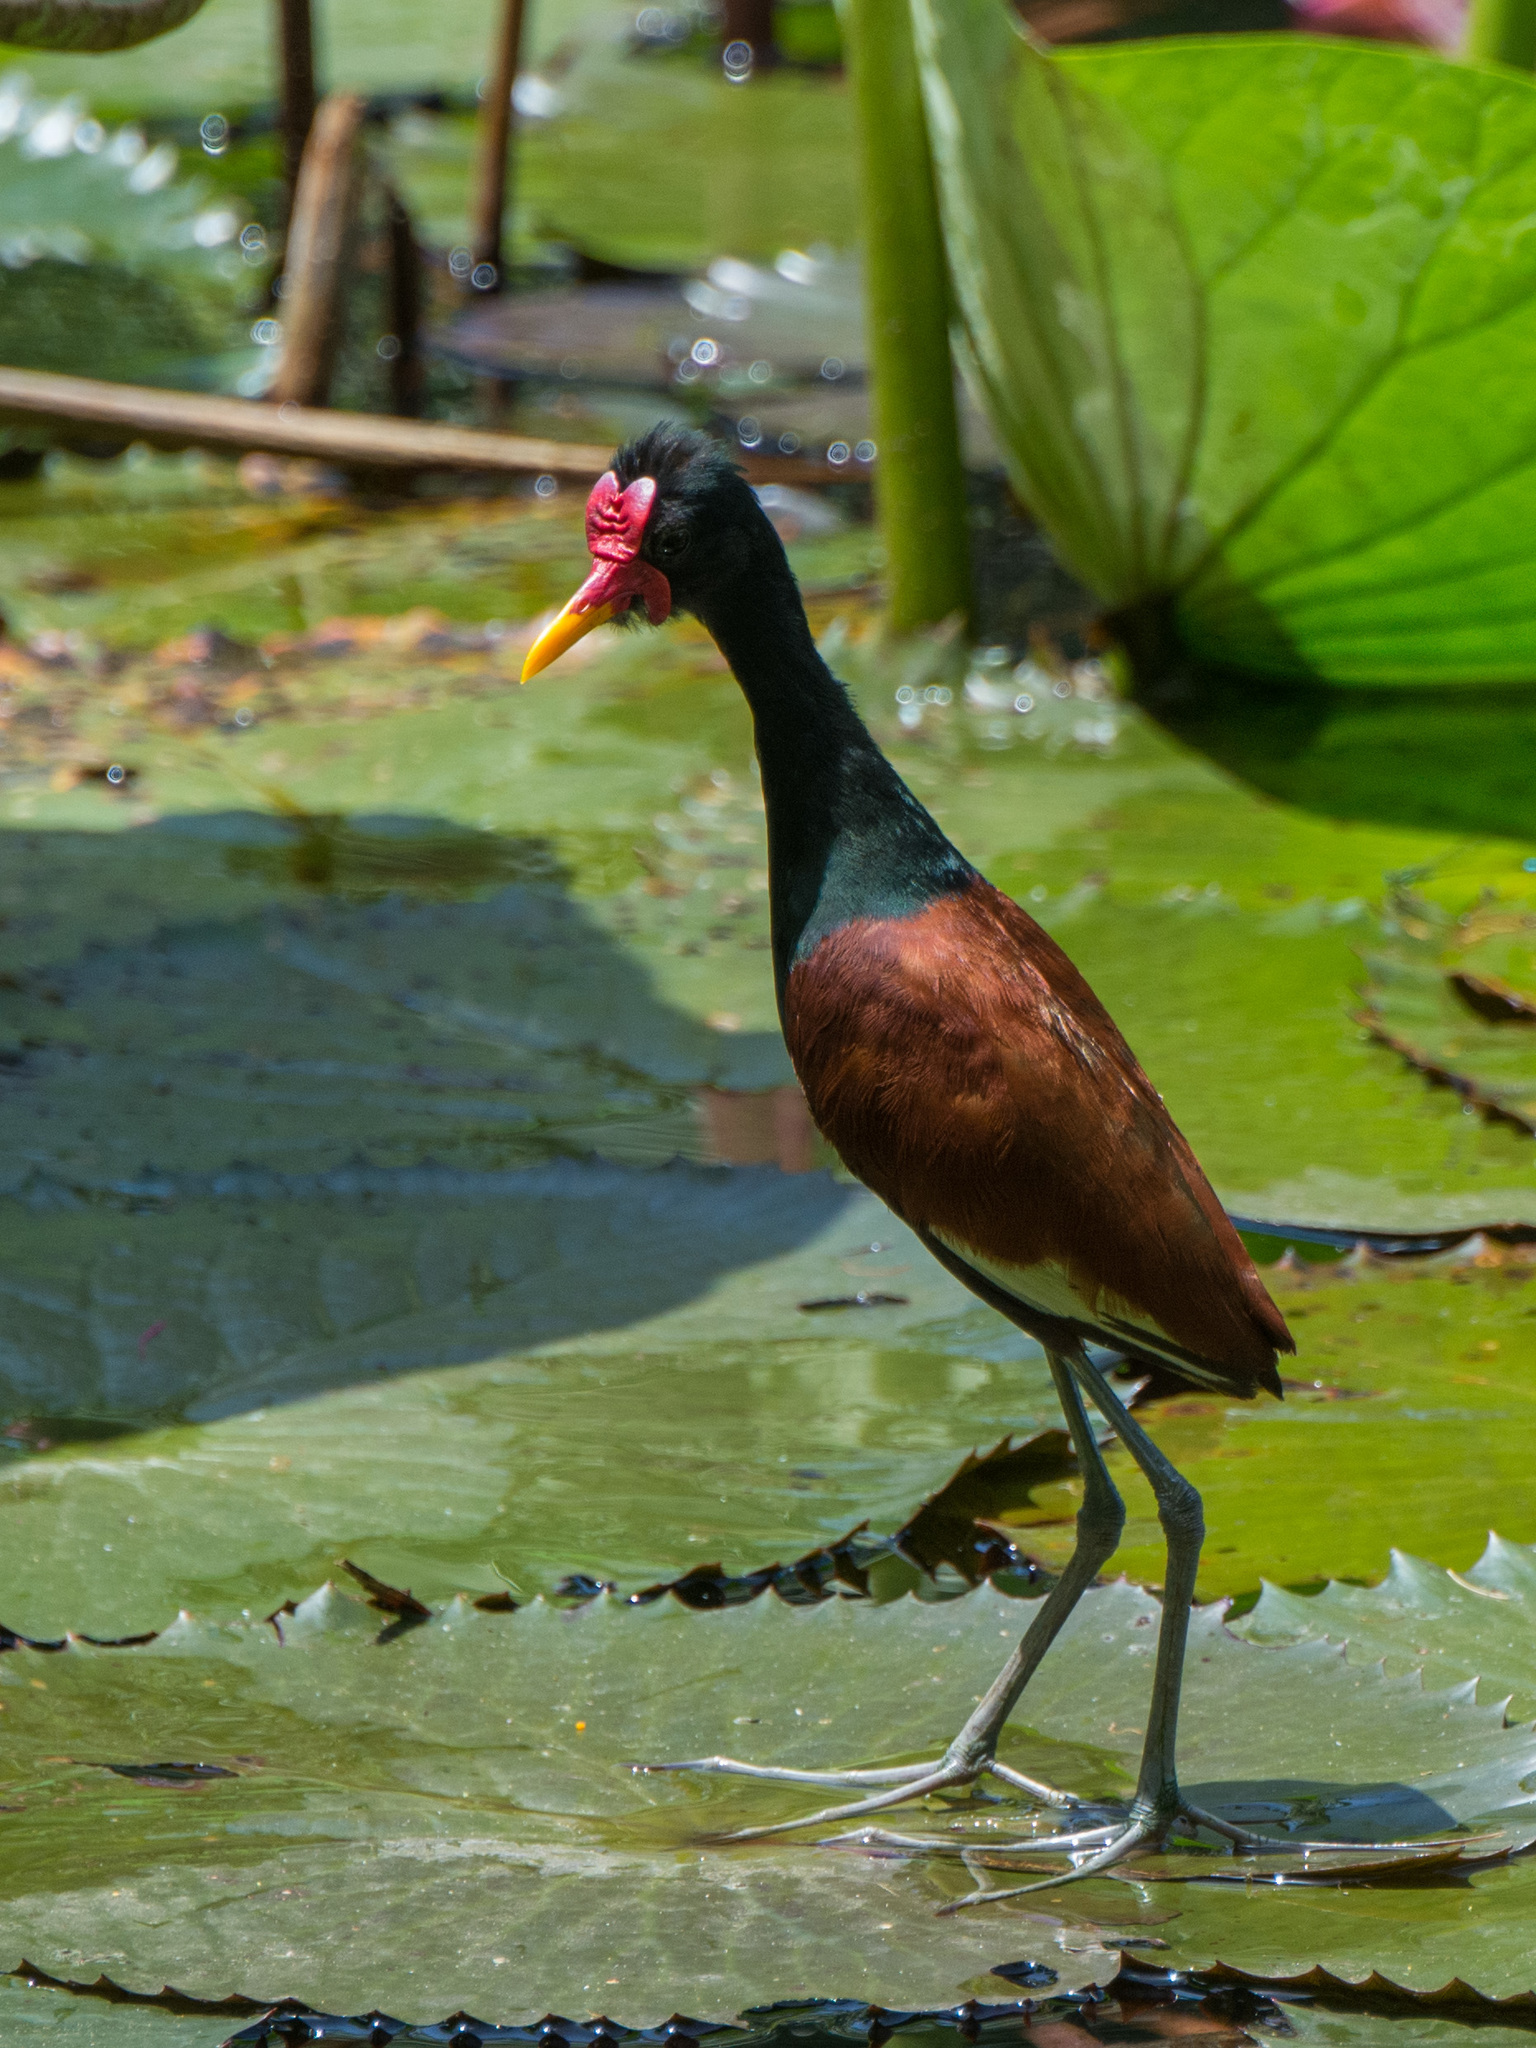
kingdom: Animalia
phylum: Chordata
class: Aves
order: Charadriiformes
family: Jacanidae
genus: Jacana
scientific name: Jacana jacana
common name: Wattled jacana
